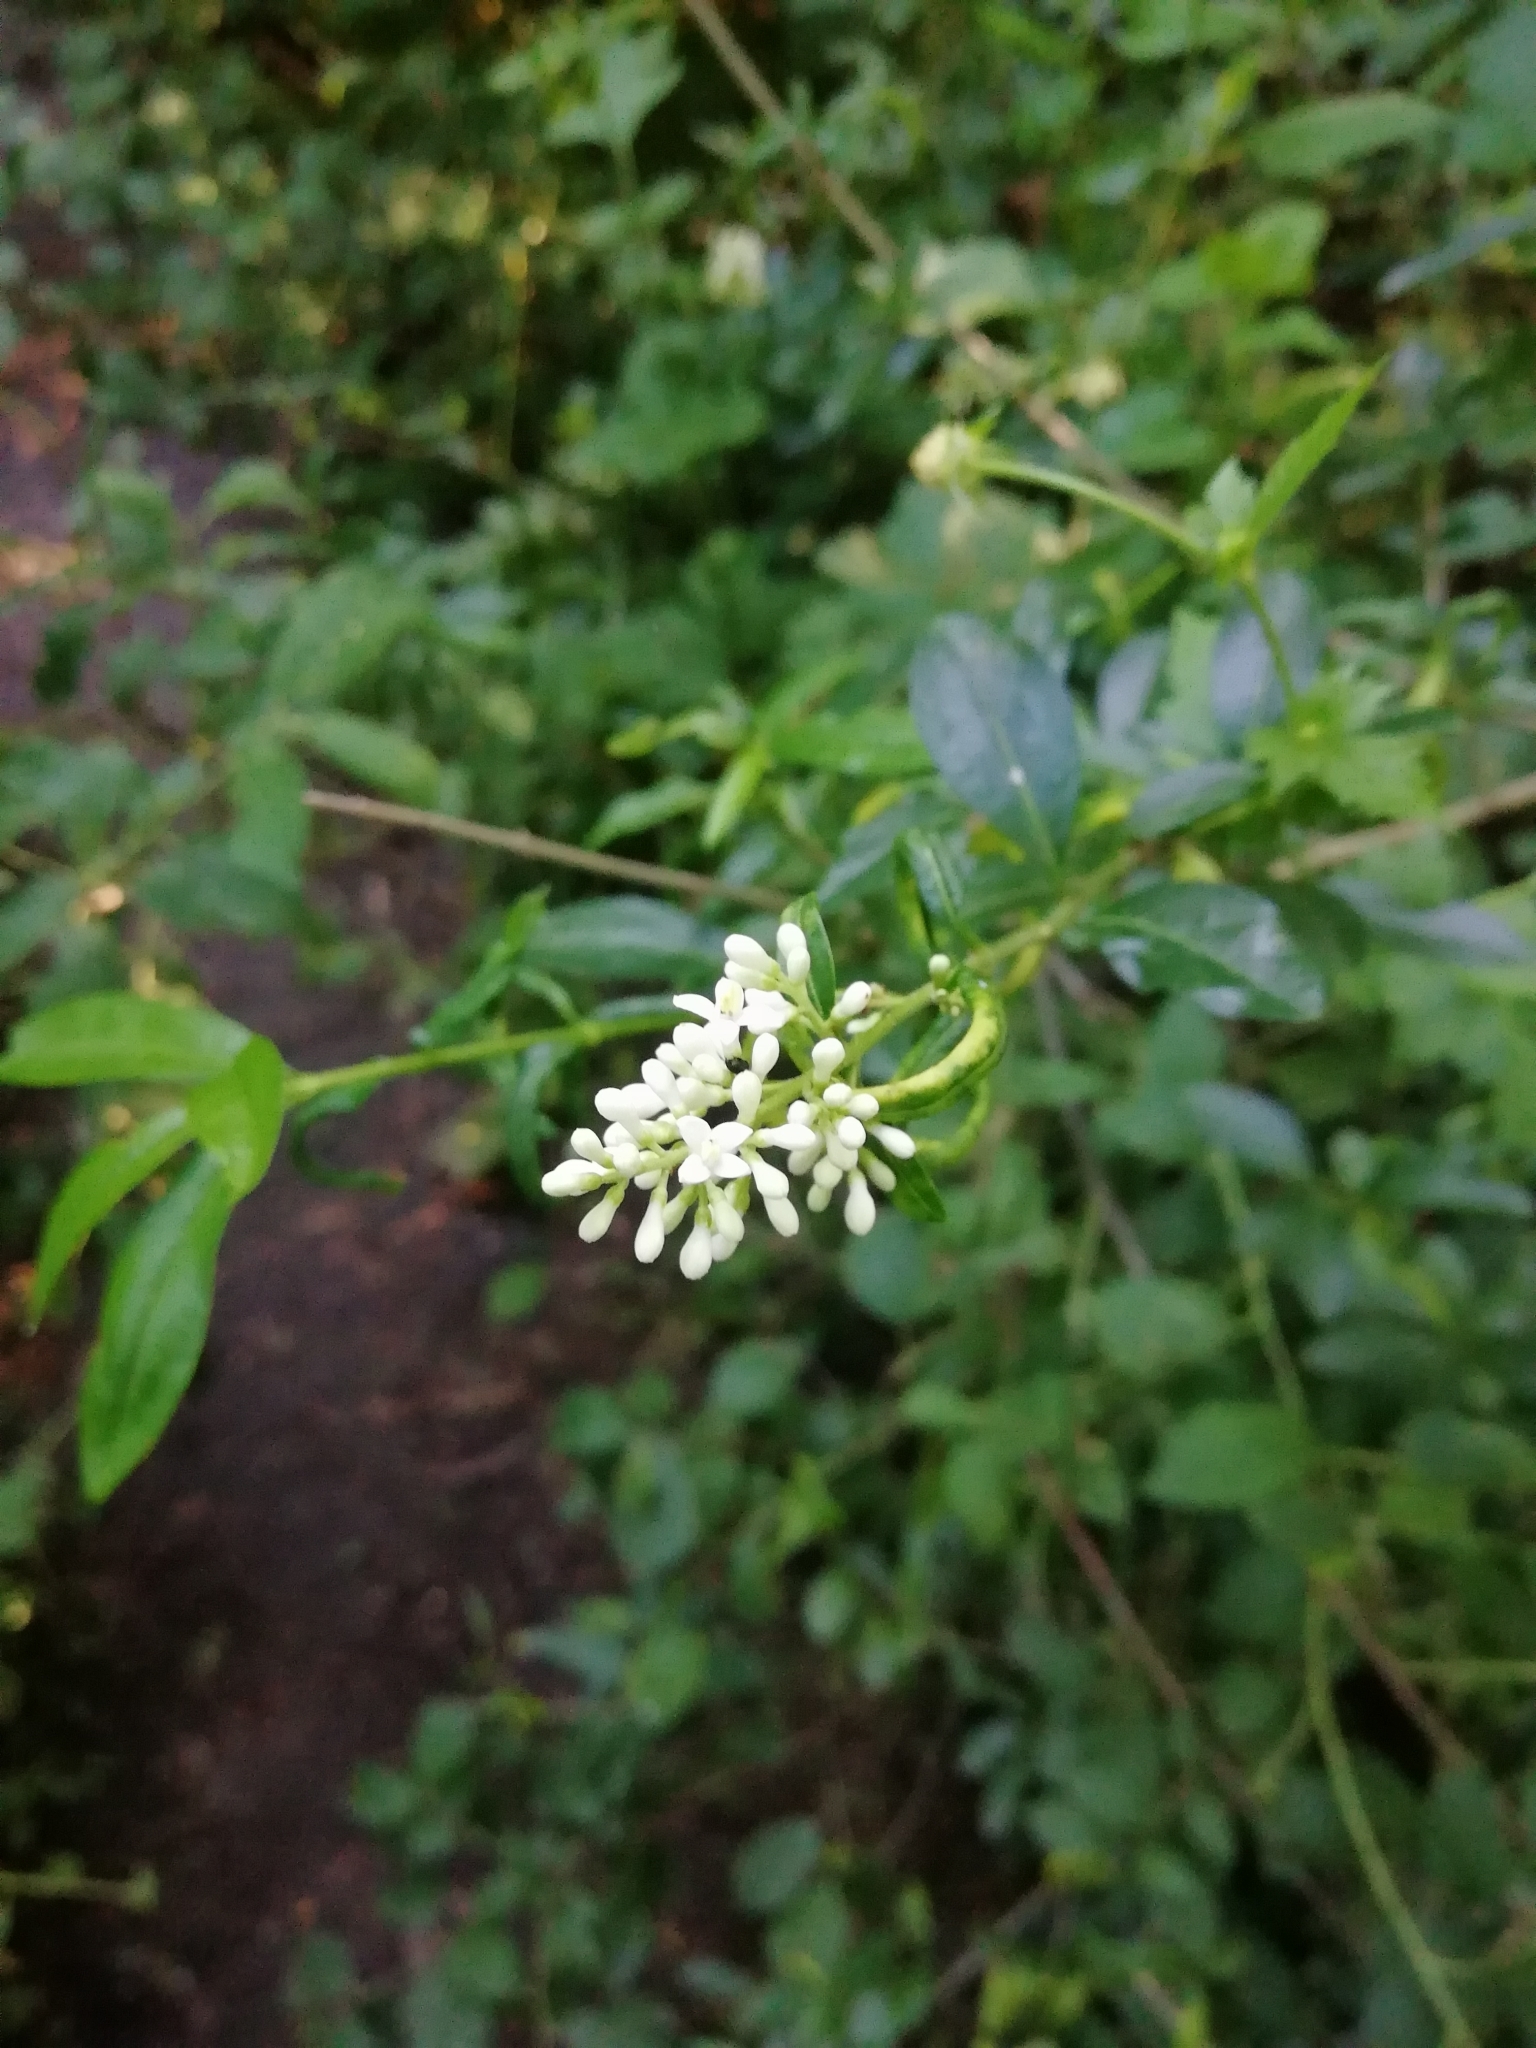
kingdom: Plantae
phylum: Tracheophyta
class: Magnoliopsida
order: Lamiales
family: Oleaceae
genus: Ligustrum
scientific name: Ligustrum vulgare
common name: Wild privet
